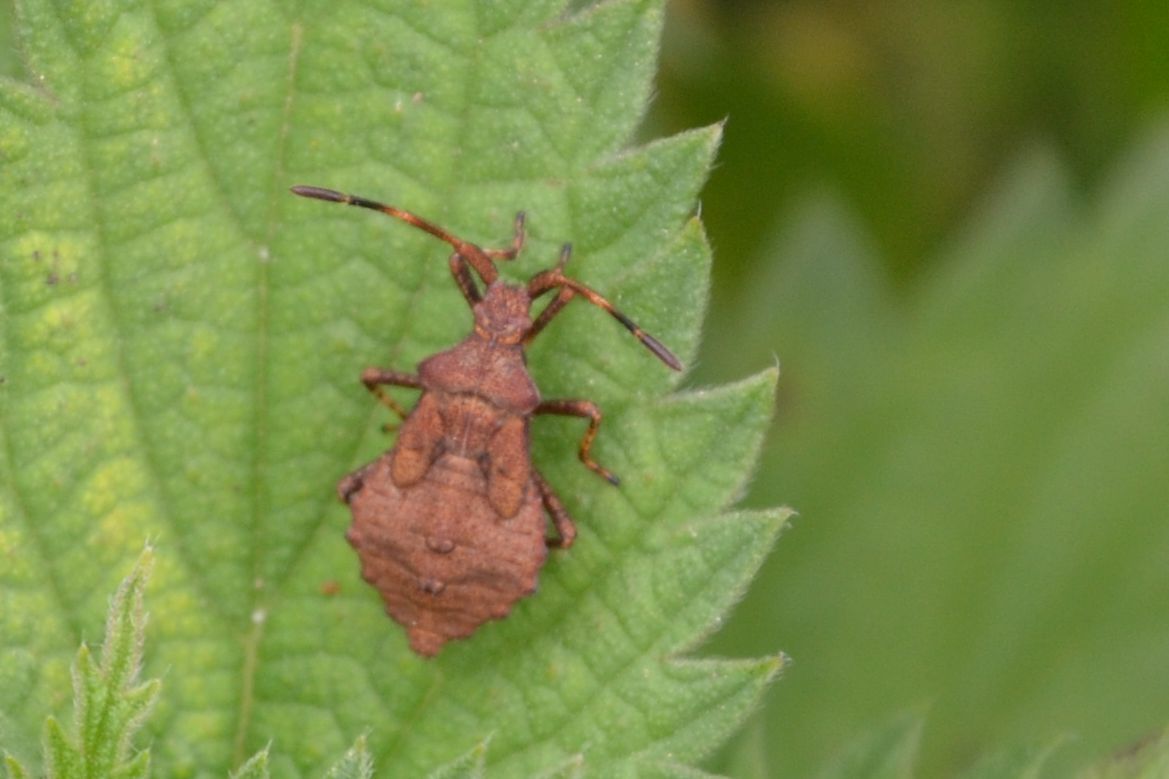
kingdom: Animalia
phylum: Arthropoda
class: Insecta
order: Hemiptera
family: Coreidae
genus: Coreus
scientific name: Coreus marginatus
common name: Dock bug
